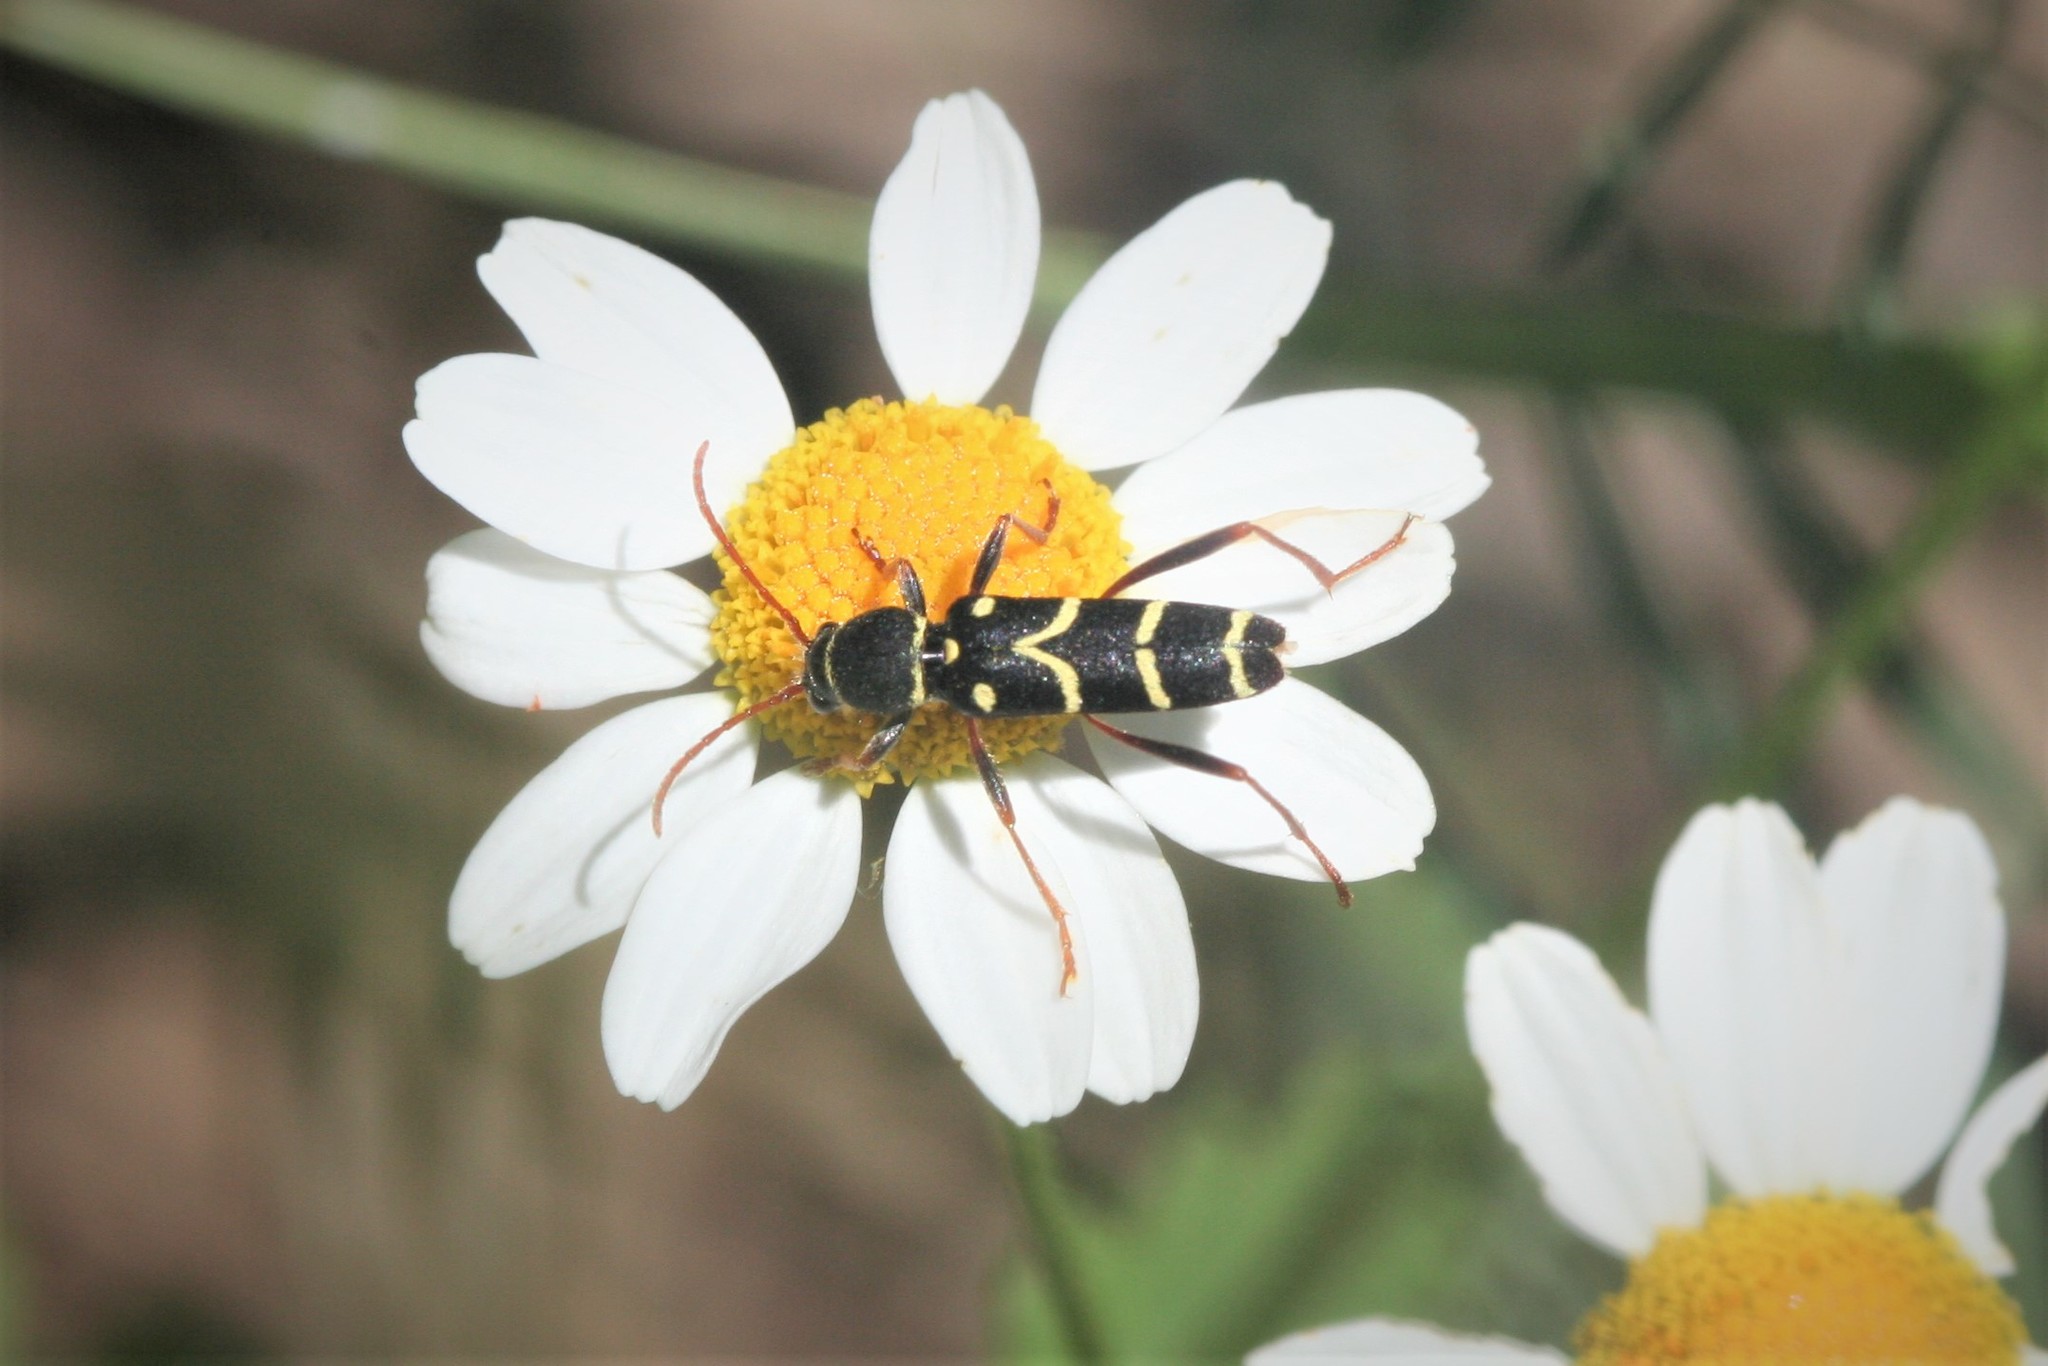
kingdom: Animalia
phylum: Arthropoda
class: Insecta
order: Coleoptera
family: Cerambycidae
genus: Clytus
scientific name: Clytus schneideri
